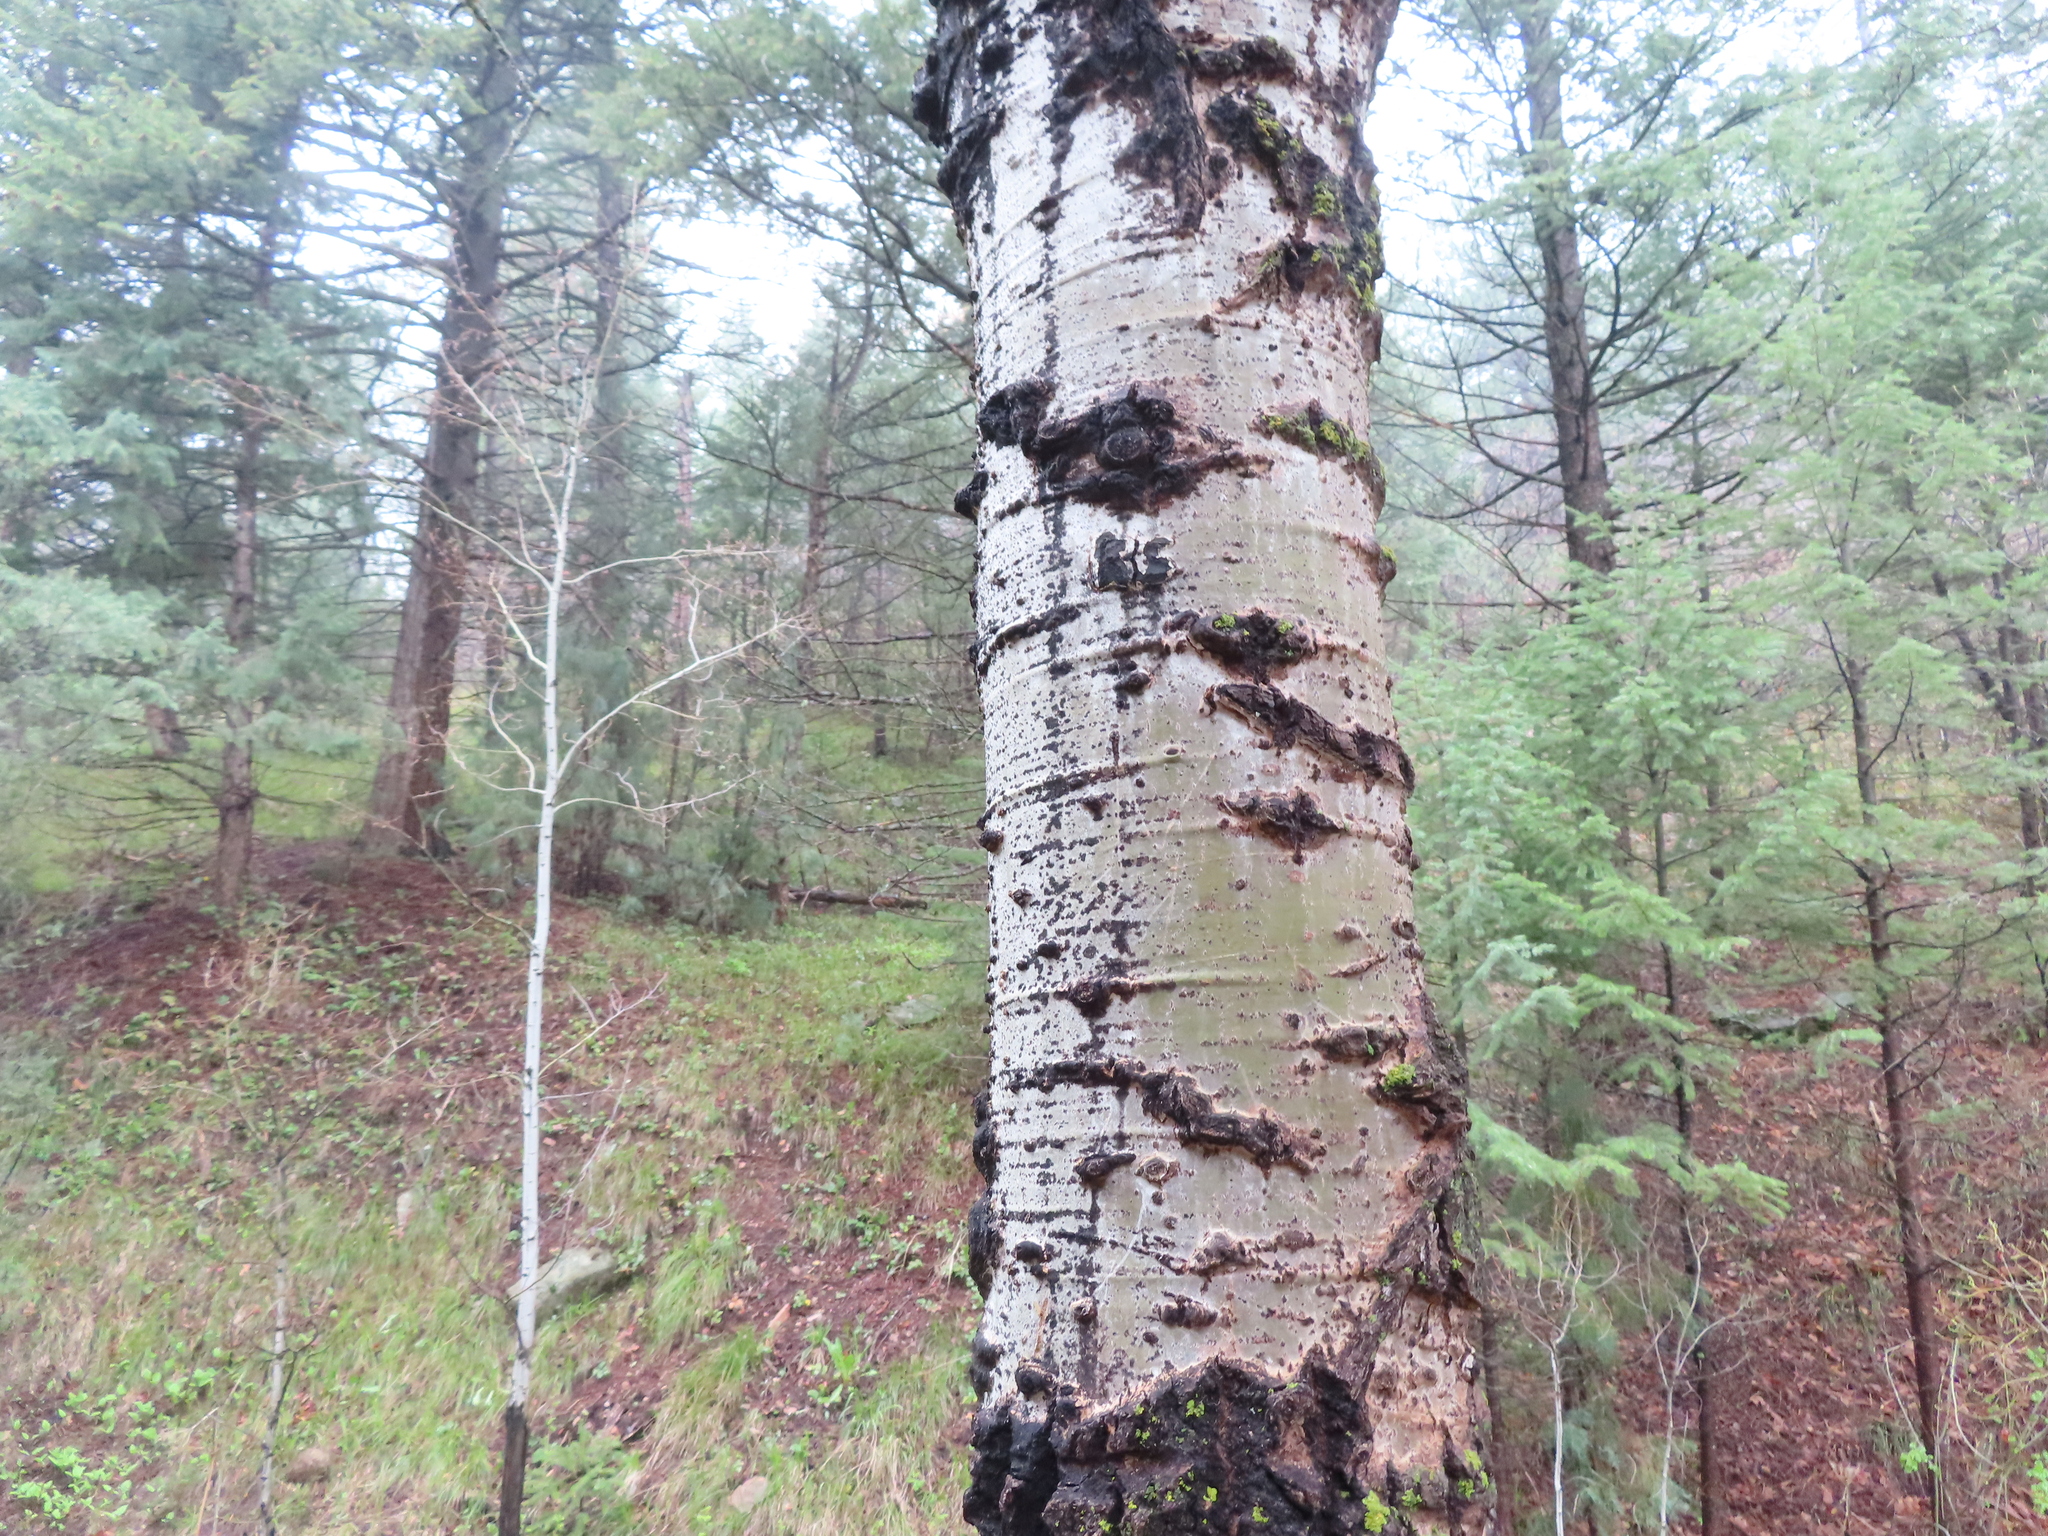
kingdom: Plantae
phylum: Tracheophyta
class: Magnoliopsida
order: Malpighiales
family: Salicaceae
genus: Populus
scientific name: Populus tremuloides
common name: Quaking aspen
